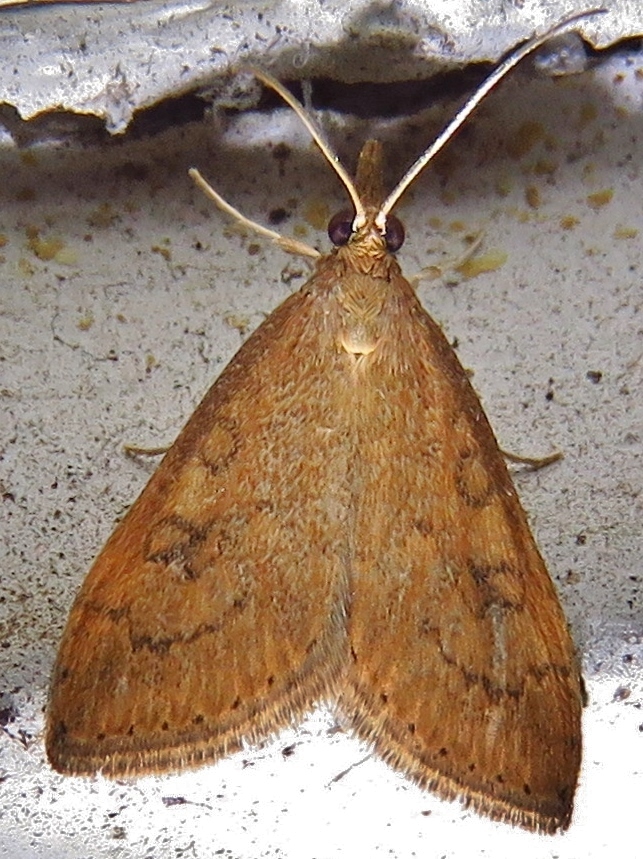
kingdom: Animalia
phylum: Arthropoda
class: Insecta
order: Lepidoptera
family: Crambidae
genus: Udea
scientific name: Udea rubigalis
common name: Celery leaftier moth
